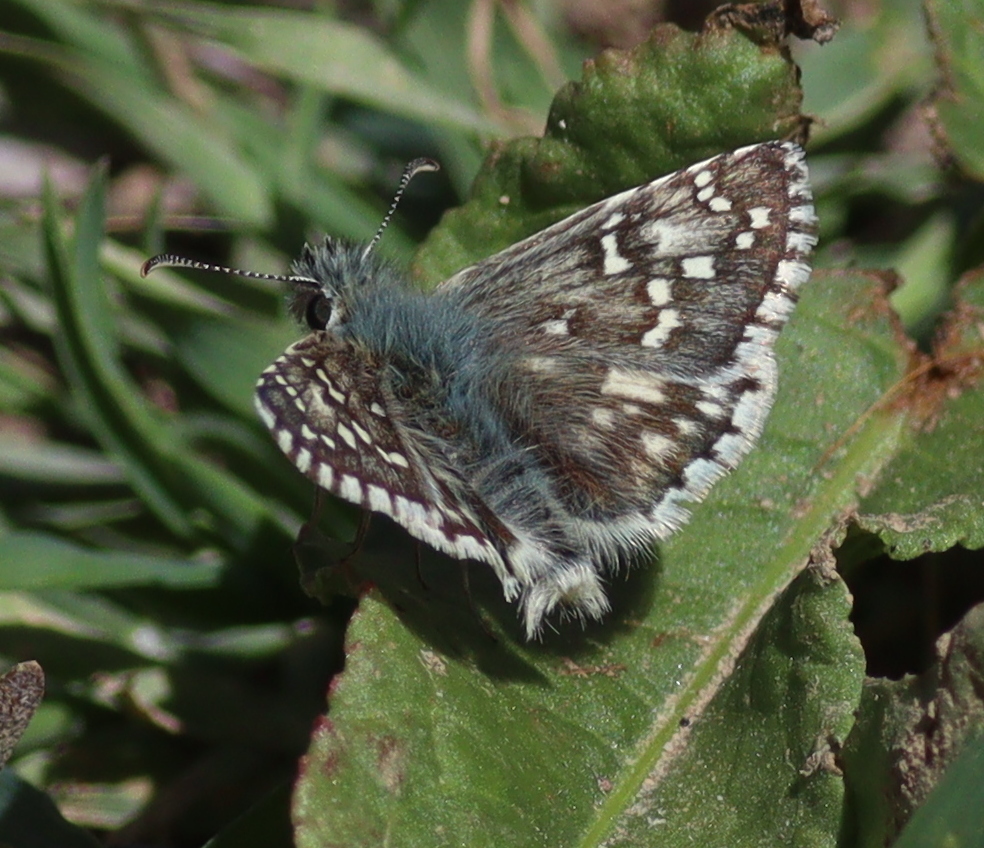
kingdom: Animalia
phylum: Arthropoda
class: Insecta
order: Lepidoptera
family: Hesperiidae
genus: Pyrgus
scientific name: Pyrgus serratulae
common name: Olive skipper
